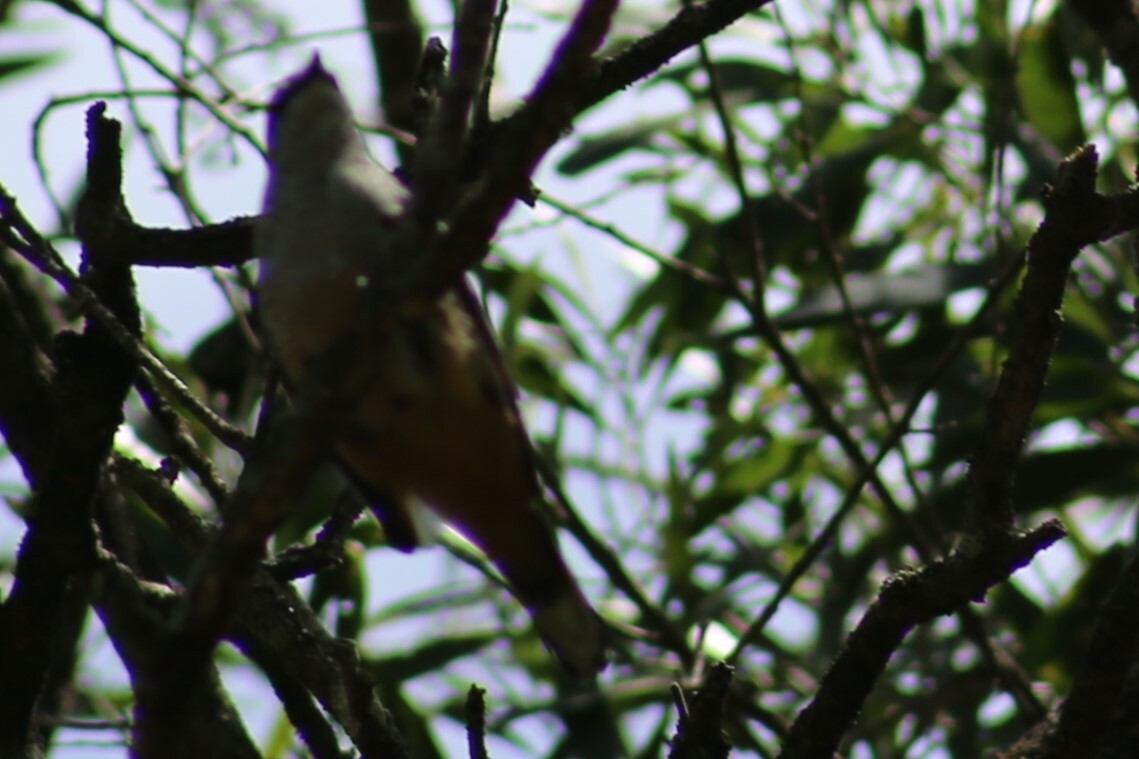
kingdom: Animalia
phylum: Chordata
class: Aves
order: Passeriformes
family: Campephagidae
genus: Lalage
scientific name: Lalage leucomela
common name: Varied triller
